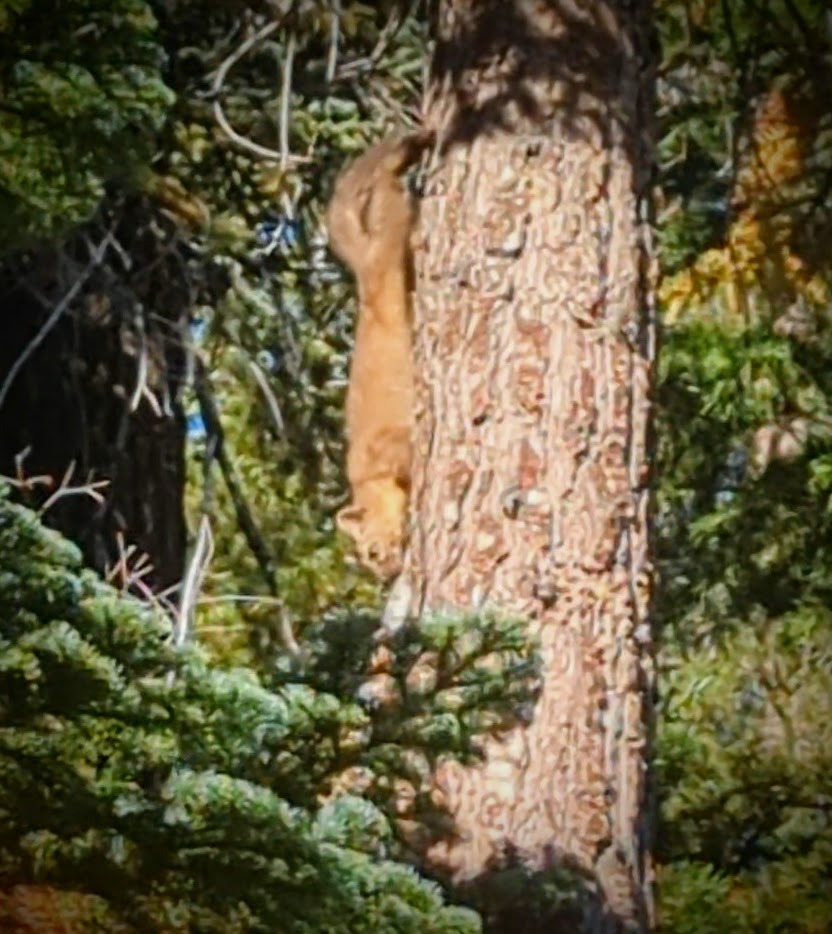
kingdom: Animalia
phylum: Chordata
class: Mammalia
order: Carnivora
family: Mustelidae
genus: Martes
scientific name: Martes caurina
